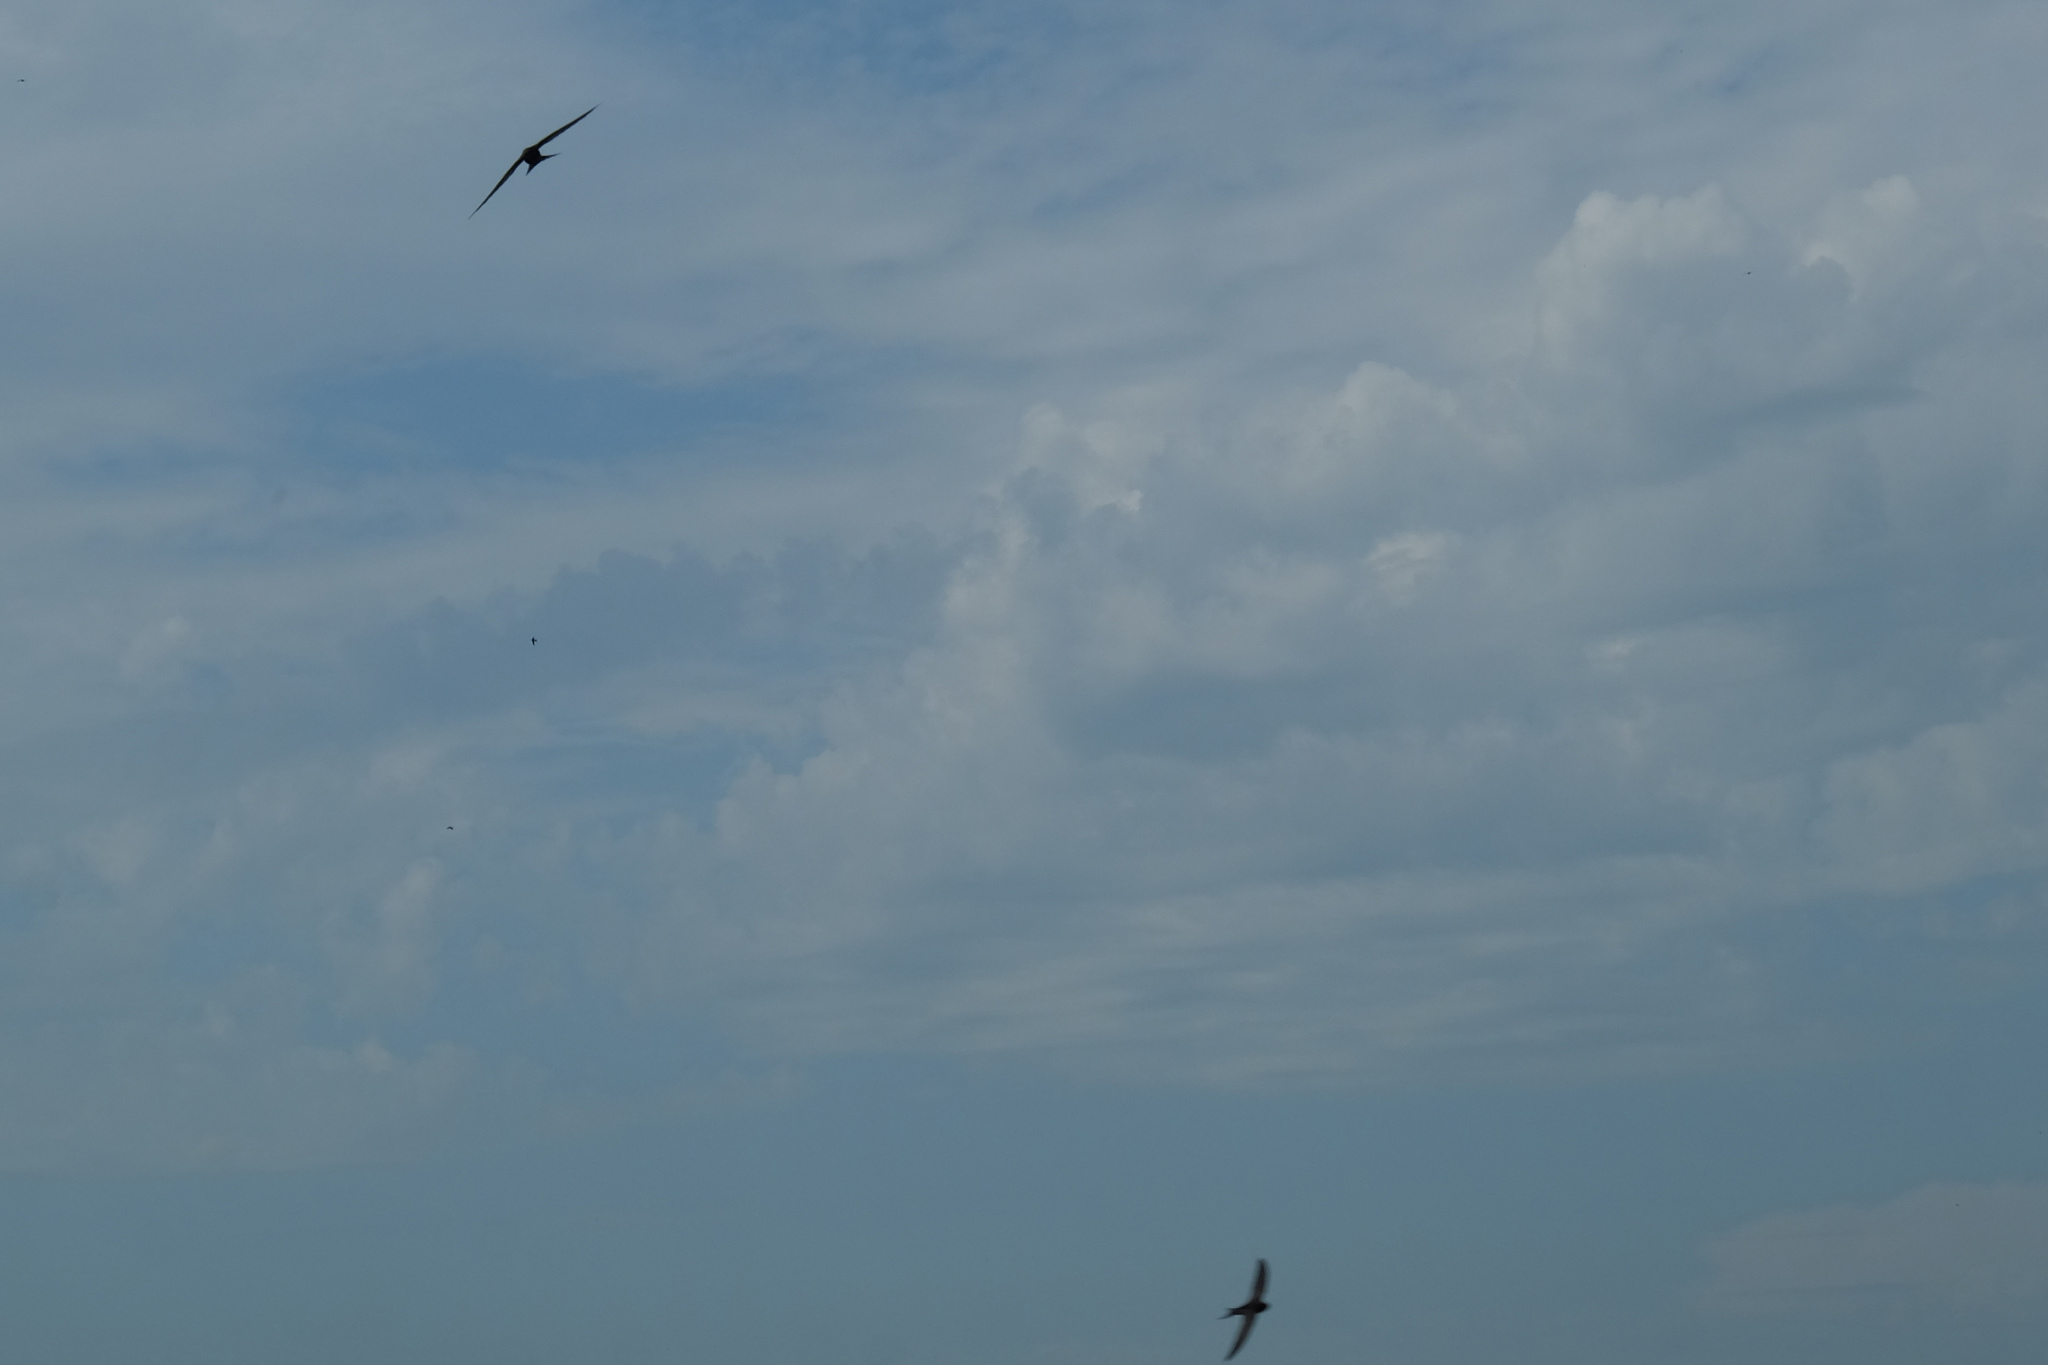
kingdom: Animalia
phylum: Chordata
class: Aves
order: Apodiformes
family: Apodidae
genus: Apus
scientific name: Apus apus
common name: Common swift
